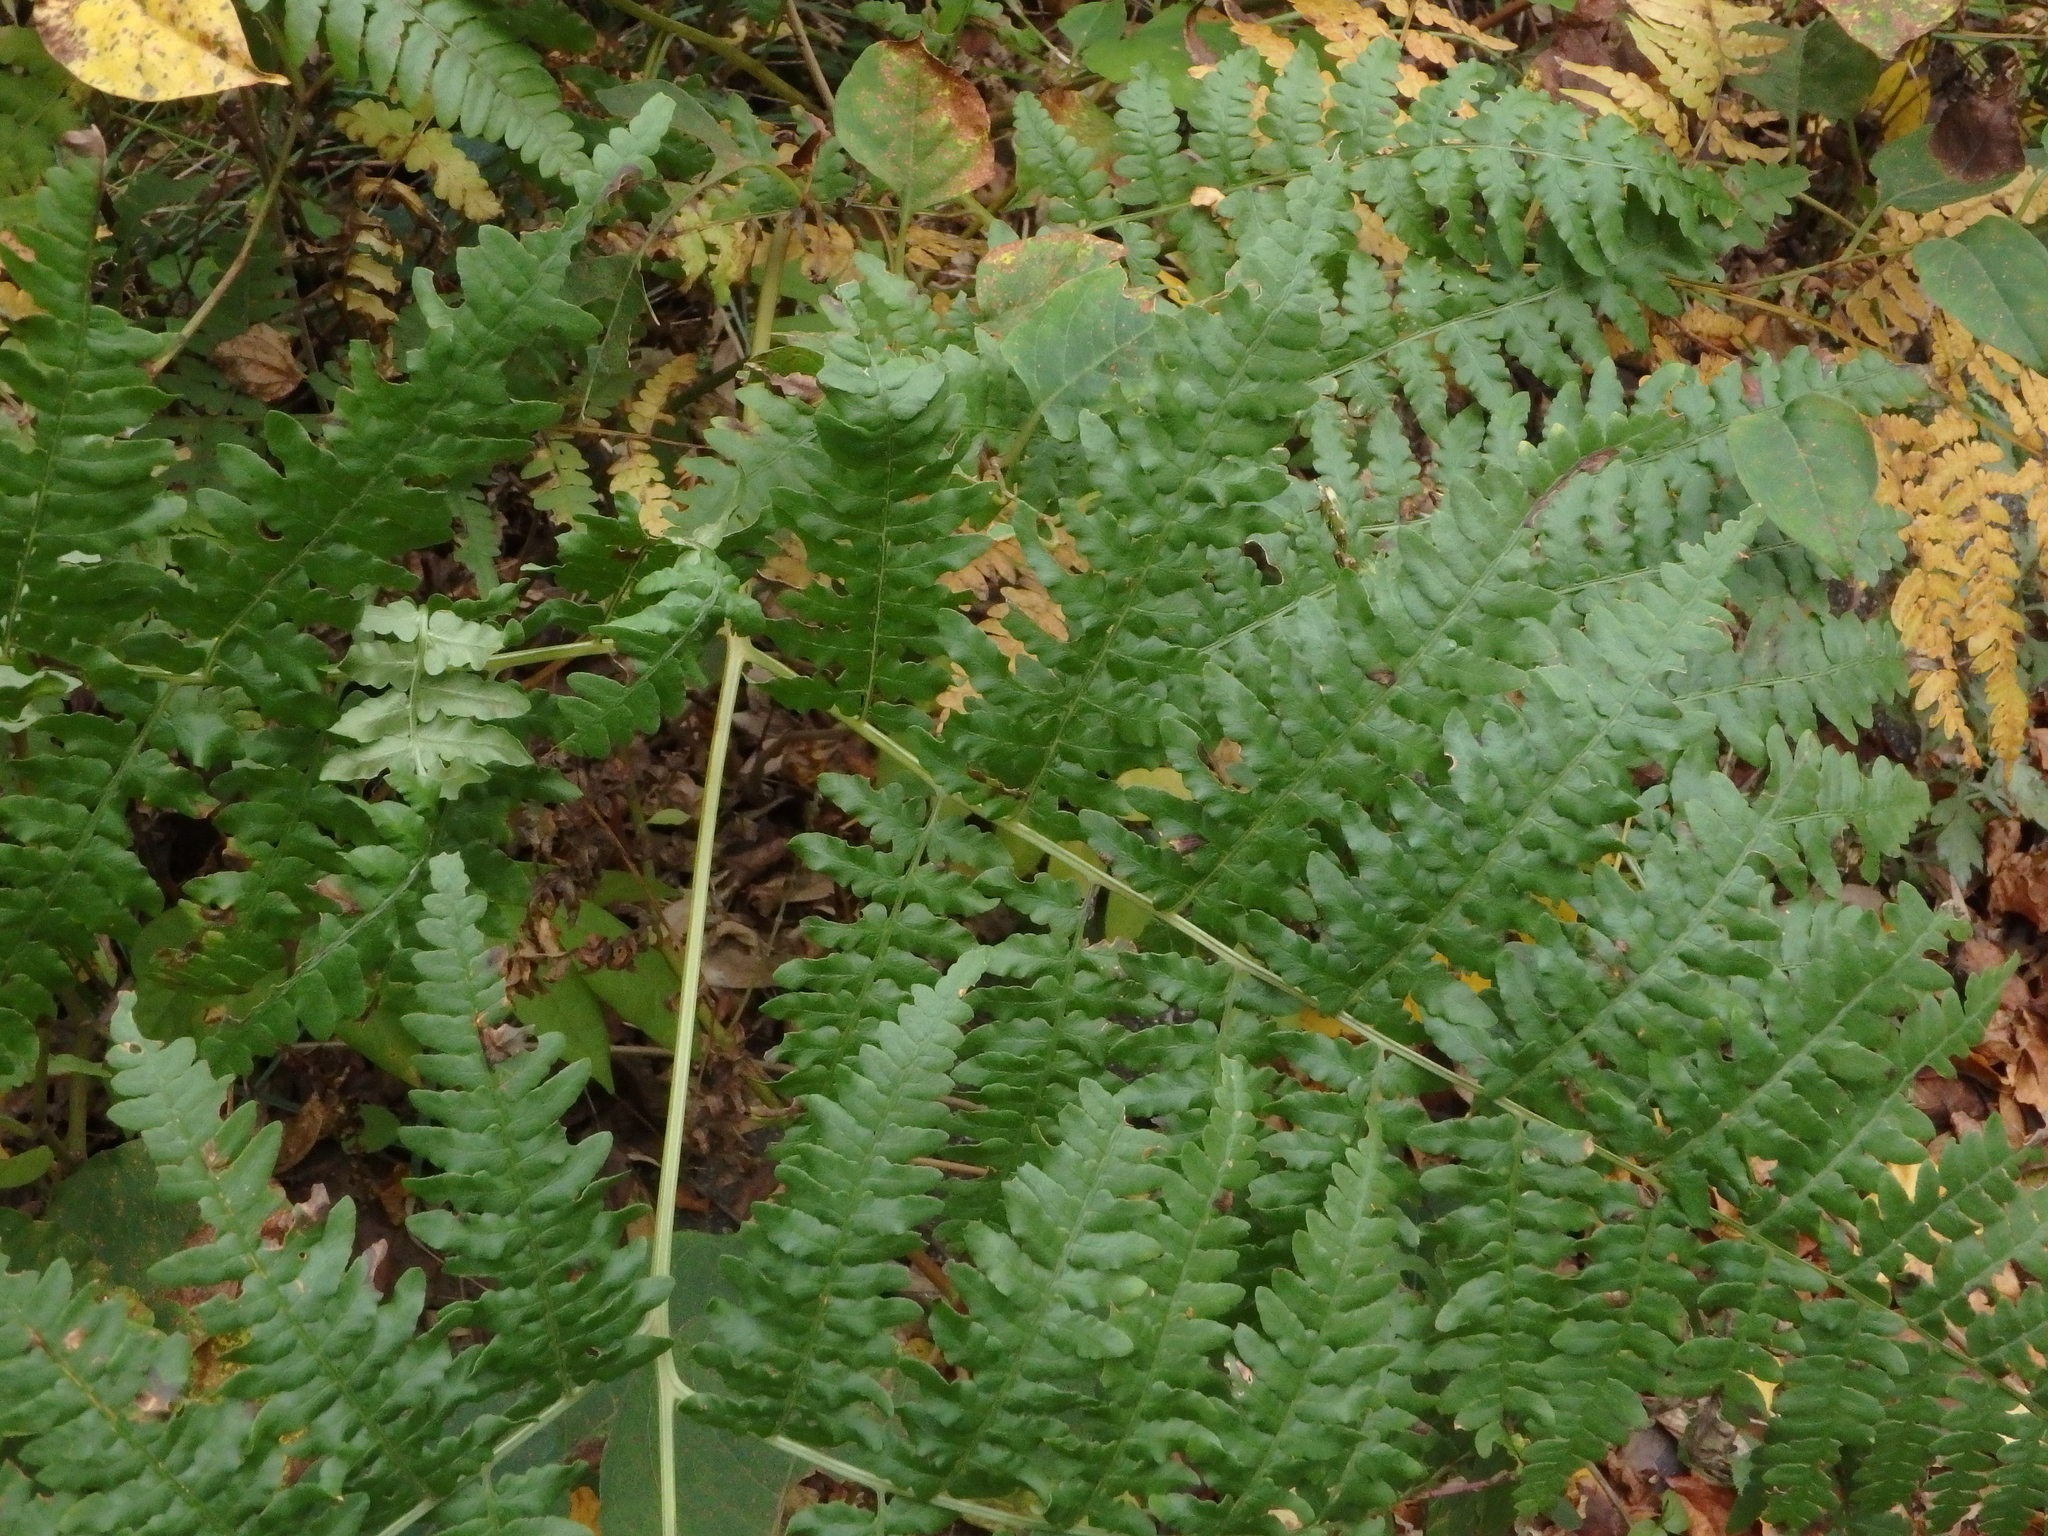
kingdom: Plantae
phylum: Tracheophyta
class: Polypodiopsida
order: Polypodiales
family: Dennstaedtiaceae
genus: Pteridium
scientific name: Pteridium aquilinum
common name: Bracken
